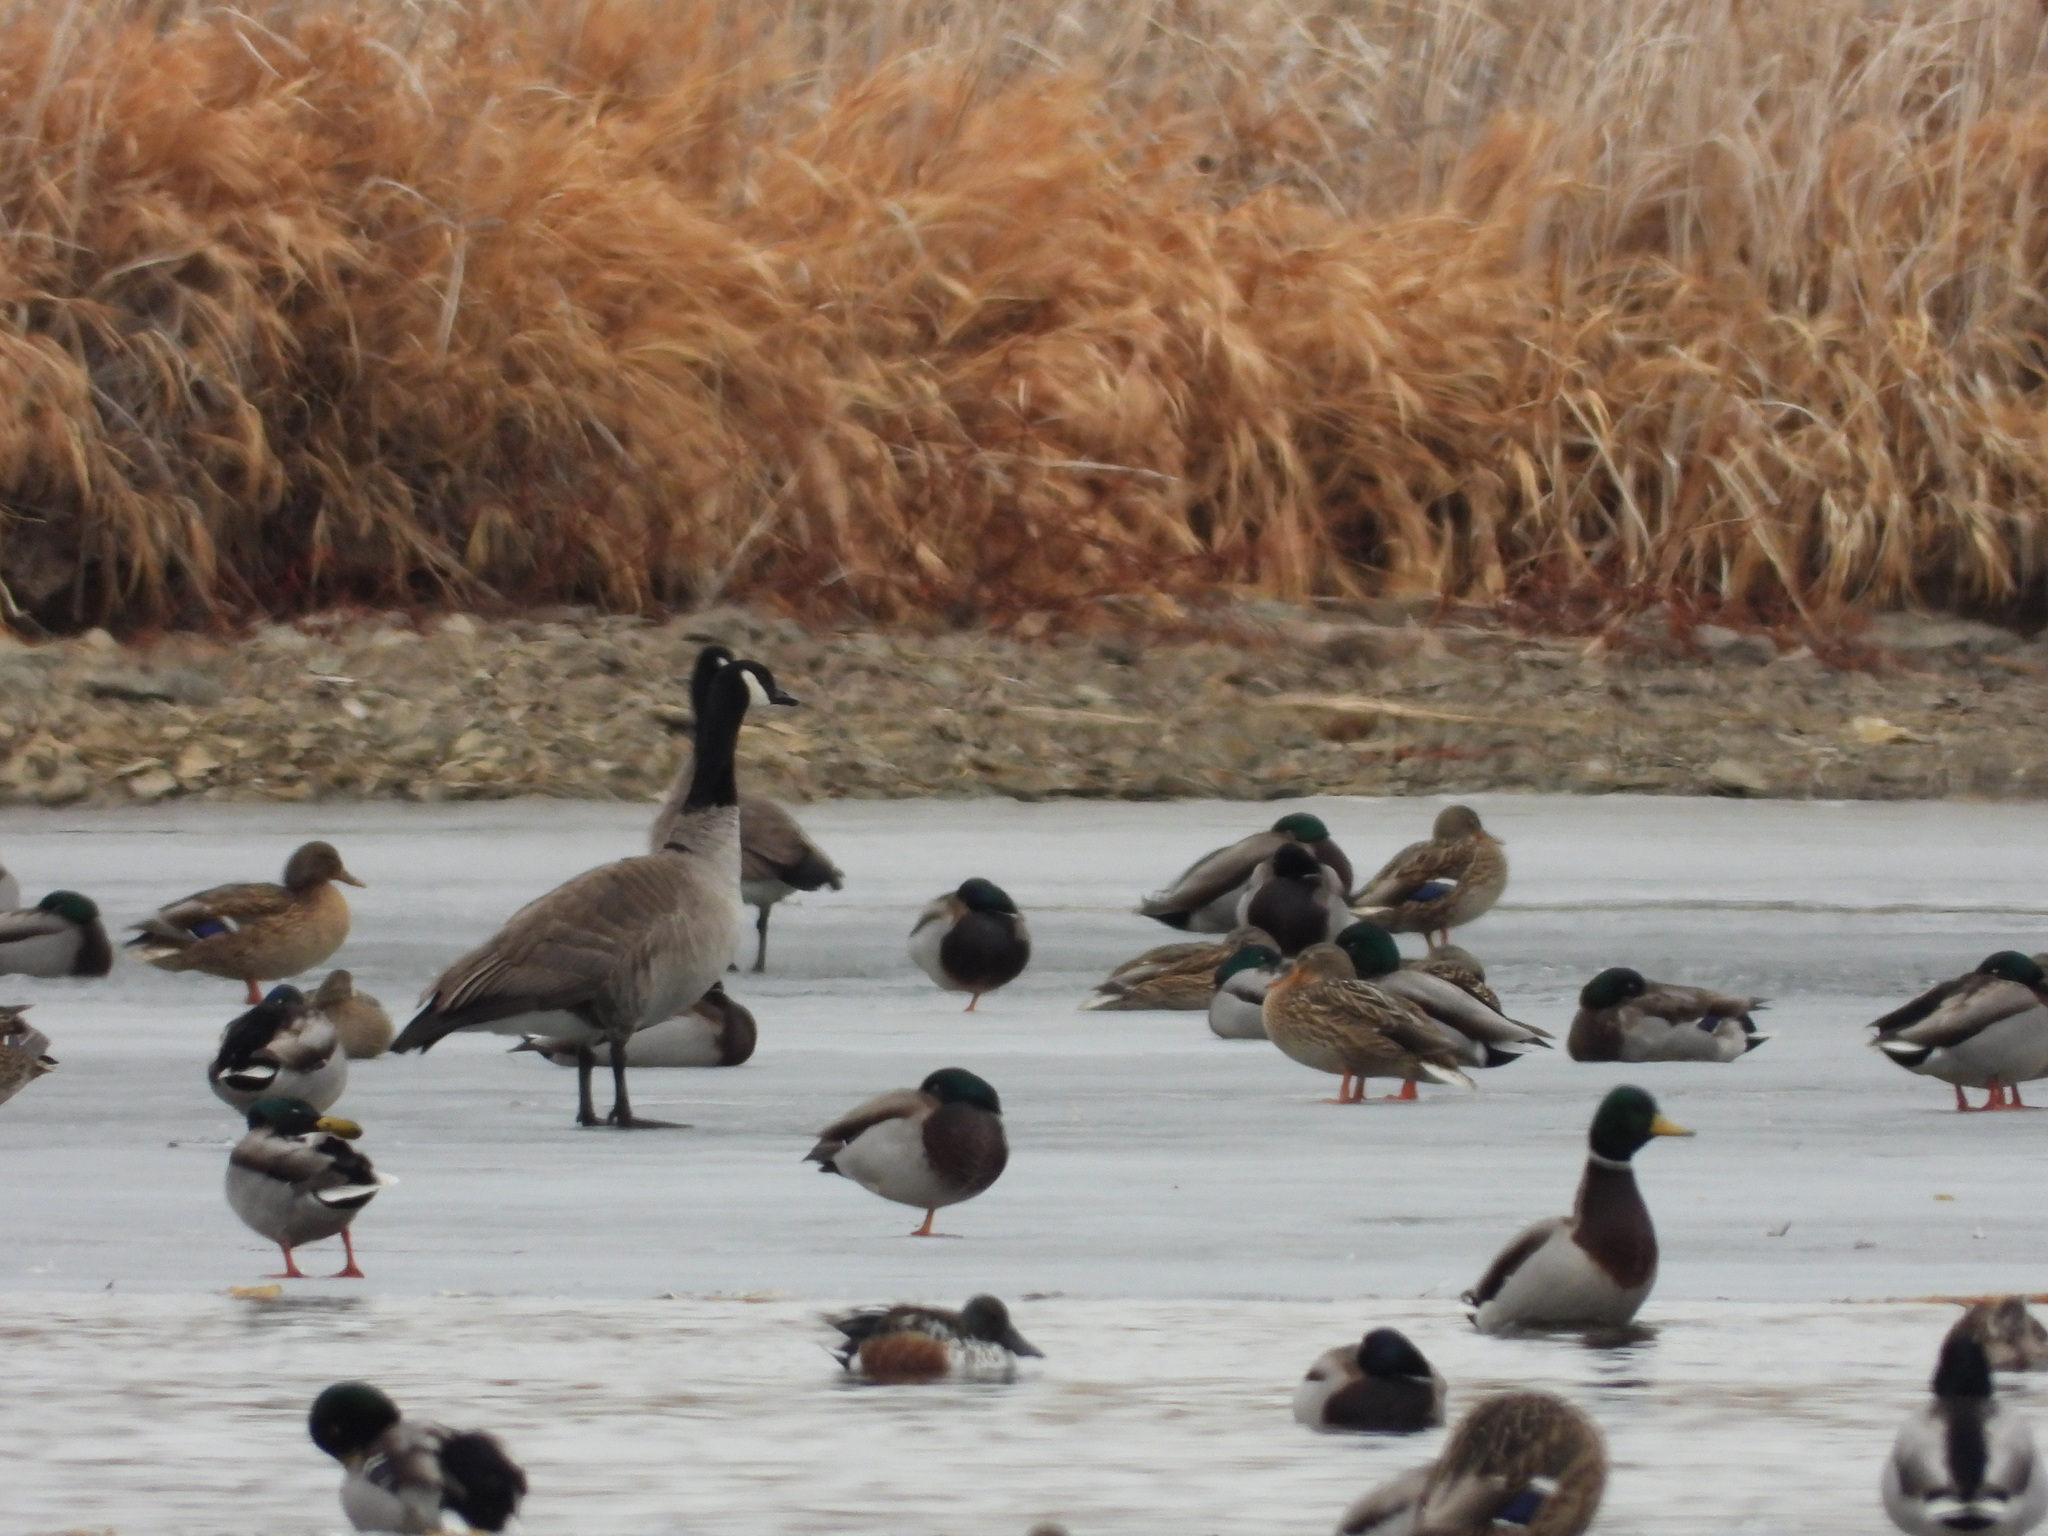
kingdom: Animalia
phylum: Chordata
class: Aves
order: Anseriformes
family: Anatidae
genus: Spatula
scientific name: Spatula clypeata
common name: Northern shoveler
